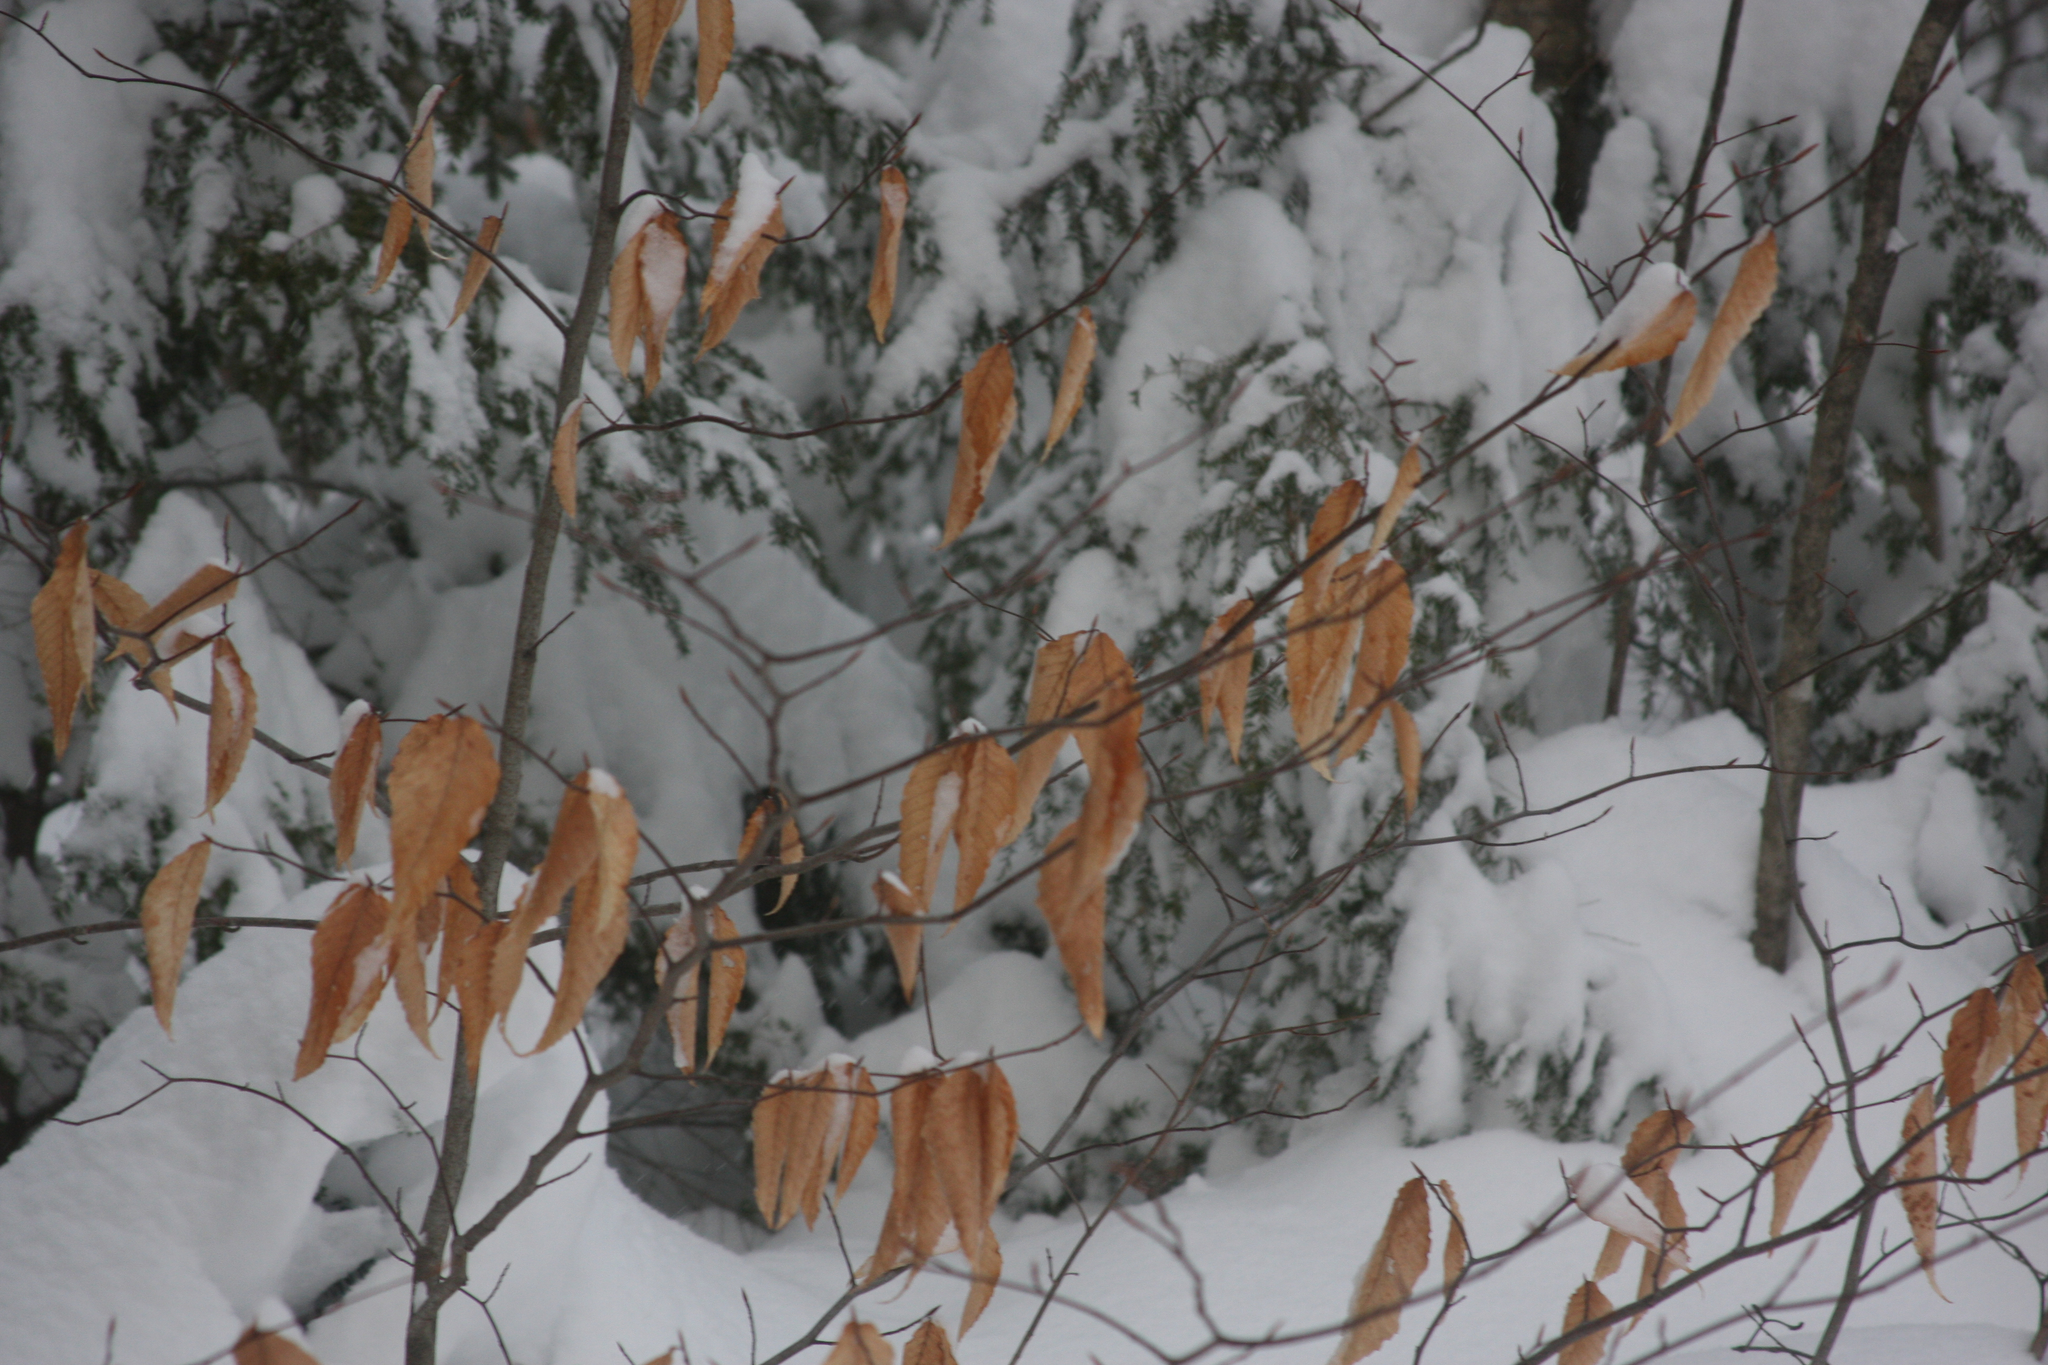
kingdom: Plantae
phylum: Tracheophyta
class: Magnoliopsida
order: Fagales
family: Fagaceae
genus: Fagus
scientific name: Fagus grandifolia
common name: American beech
